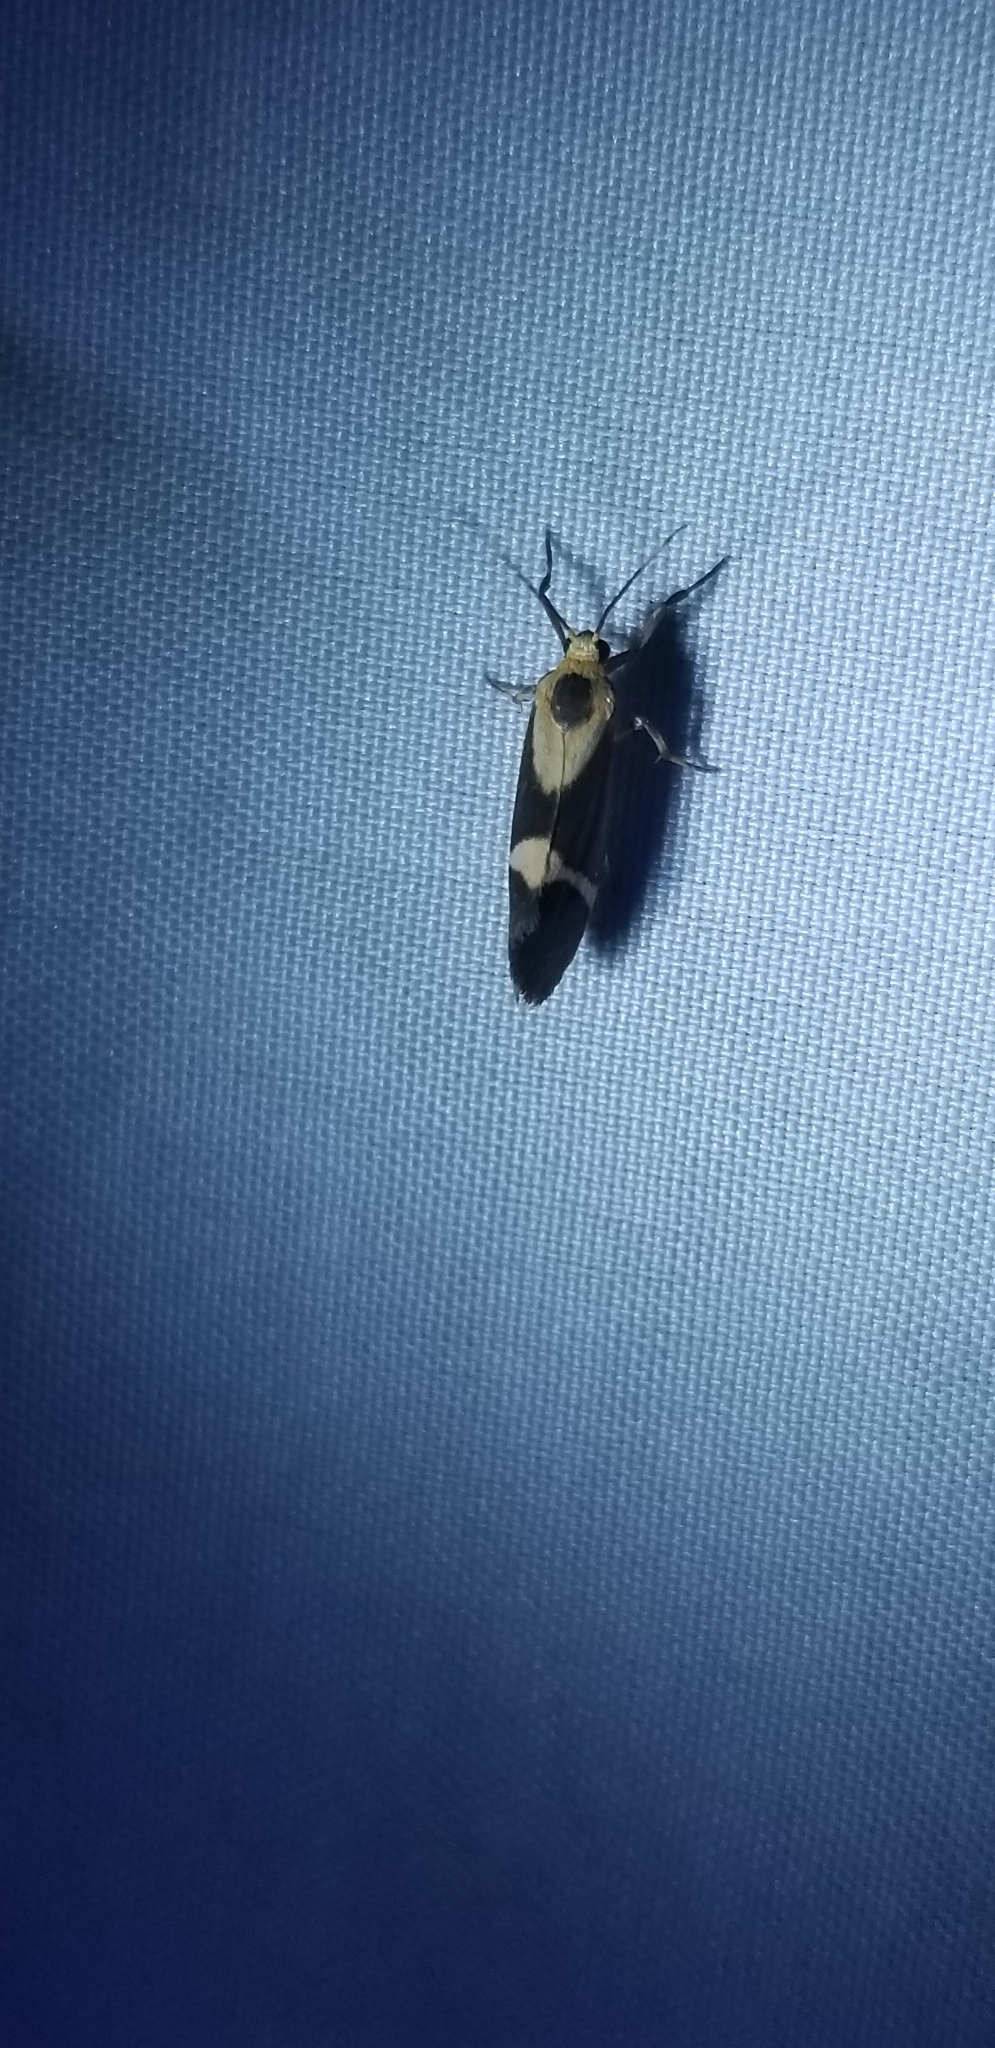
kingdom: Animalia
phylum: Arthropoda
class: Insecta
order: Lepidoptera
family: Erebidae
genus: Cisthene
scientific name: Cisthene subrufa
